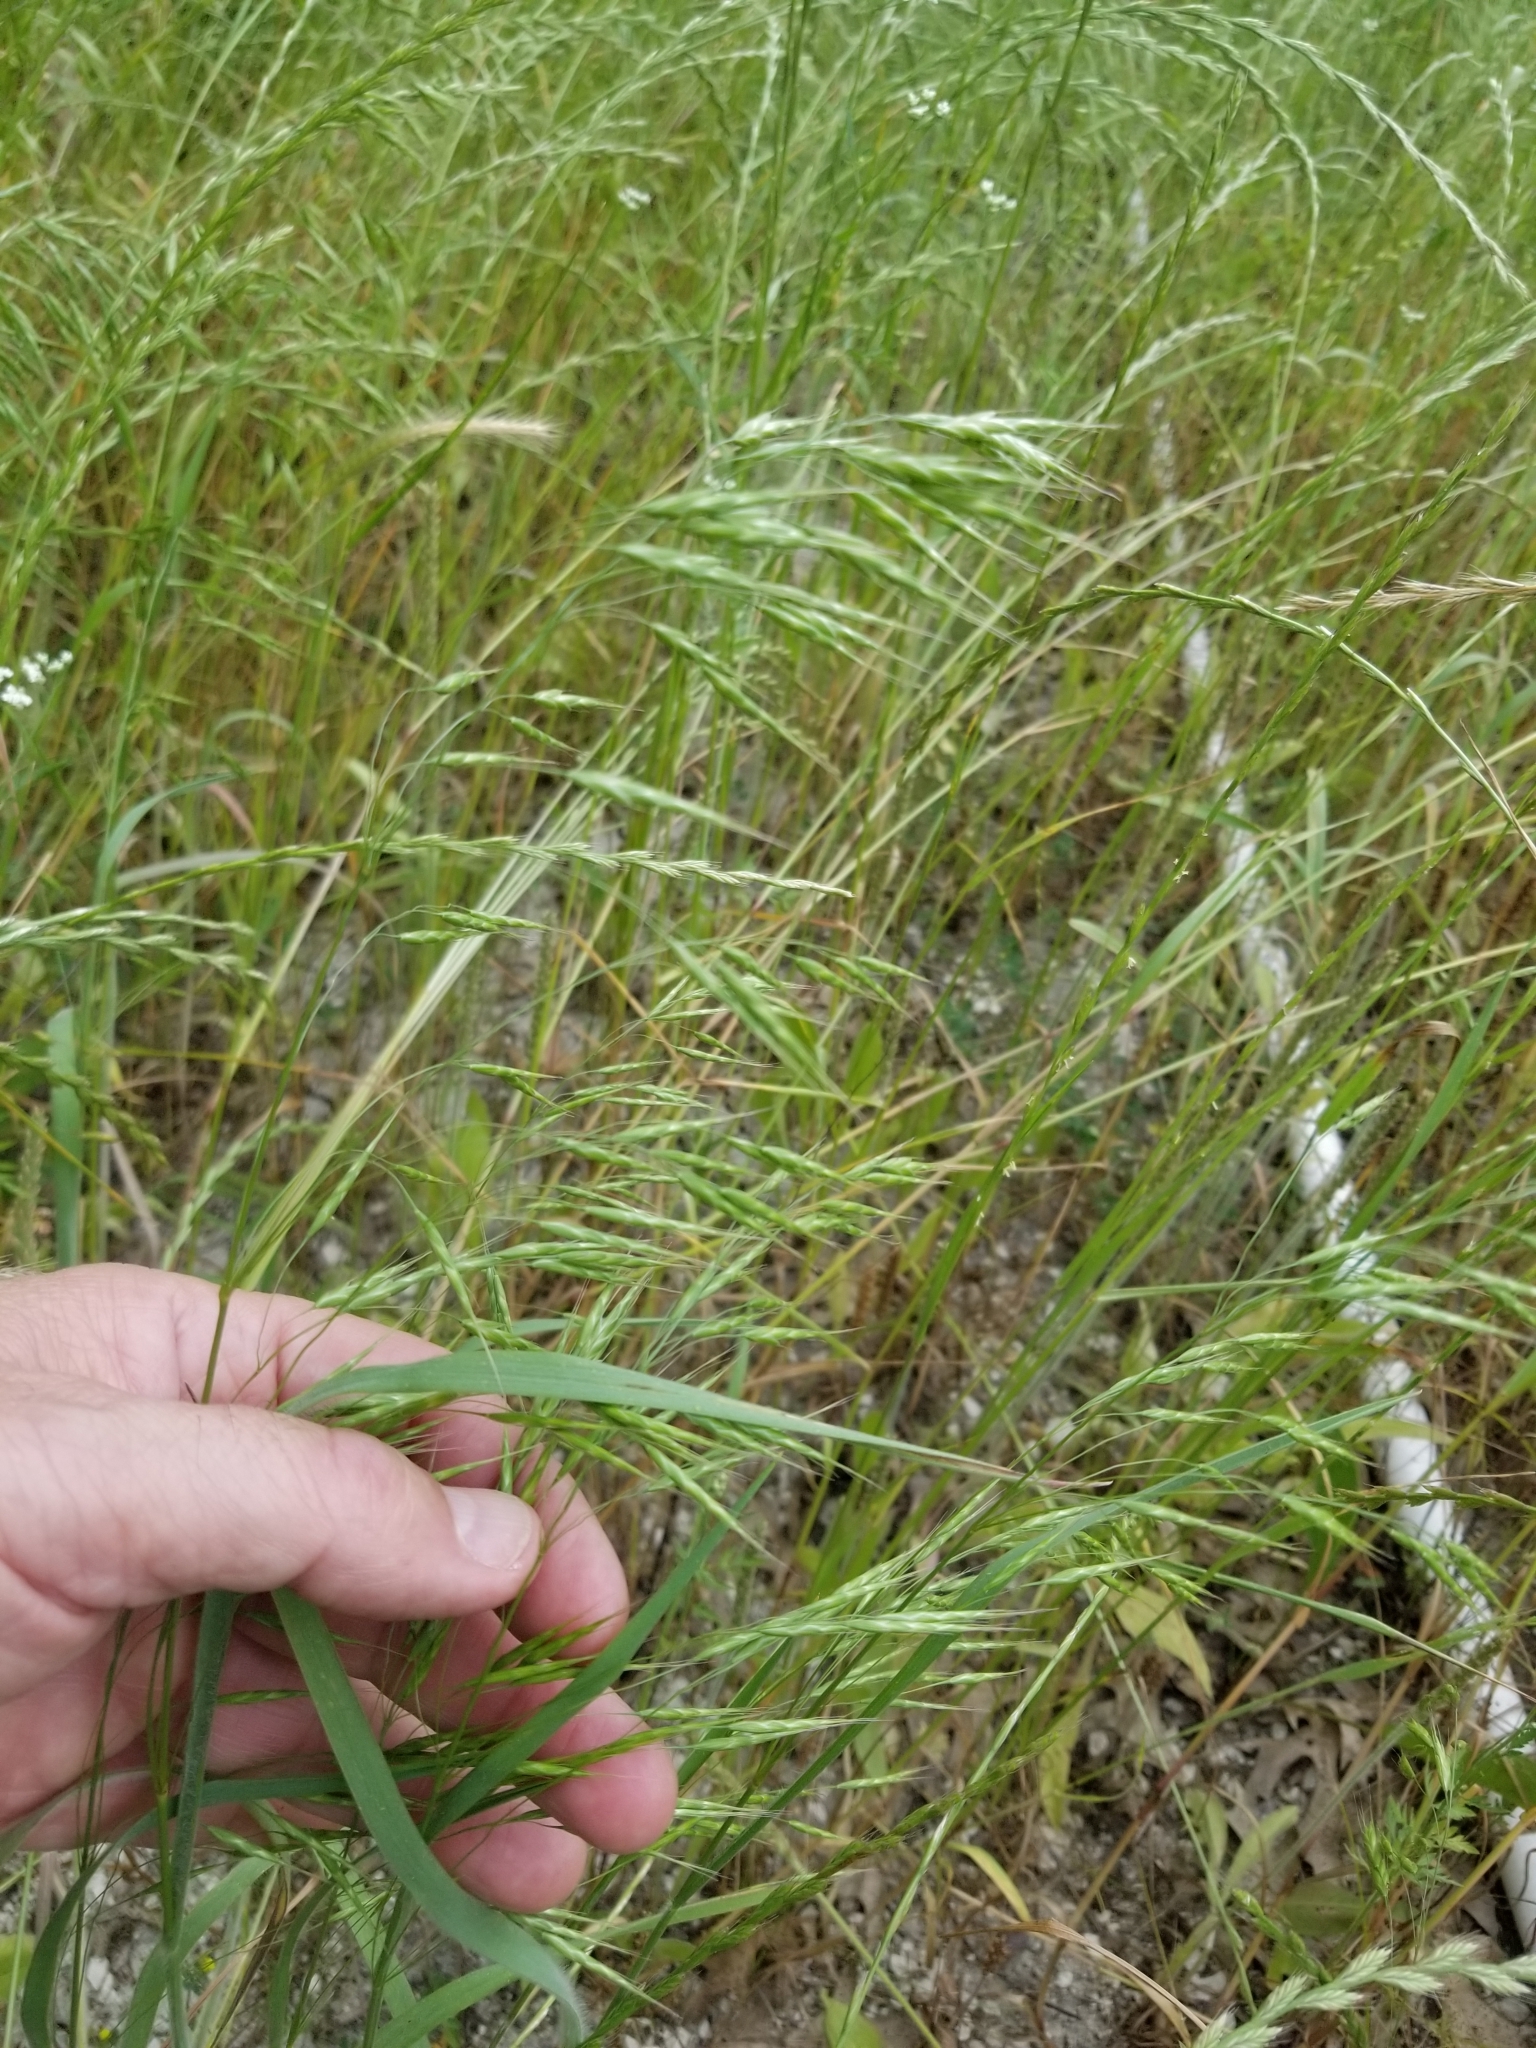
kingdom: Plantae
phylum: Tracheophyta
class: Liliopsida
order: Poales
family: Poaceae
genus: Bromus
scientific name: Bromus japonicus
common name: Japanese brome
